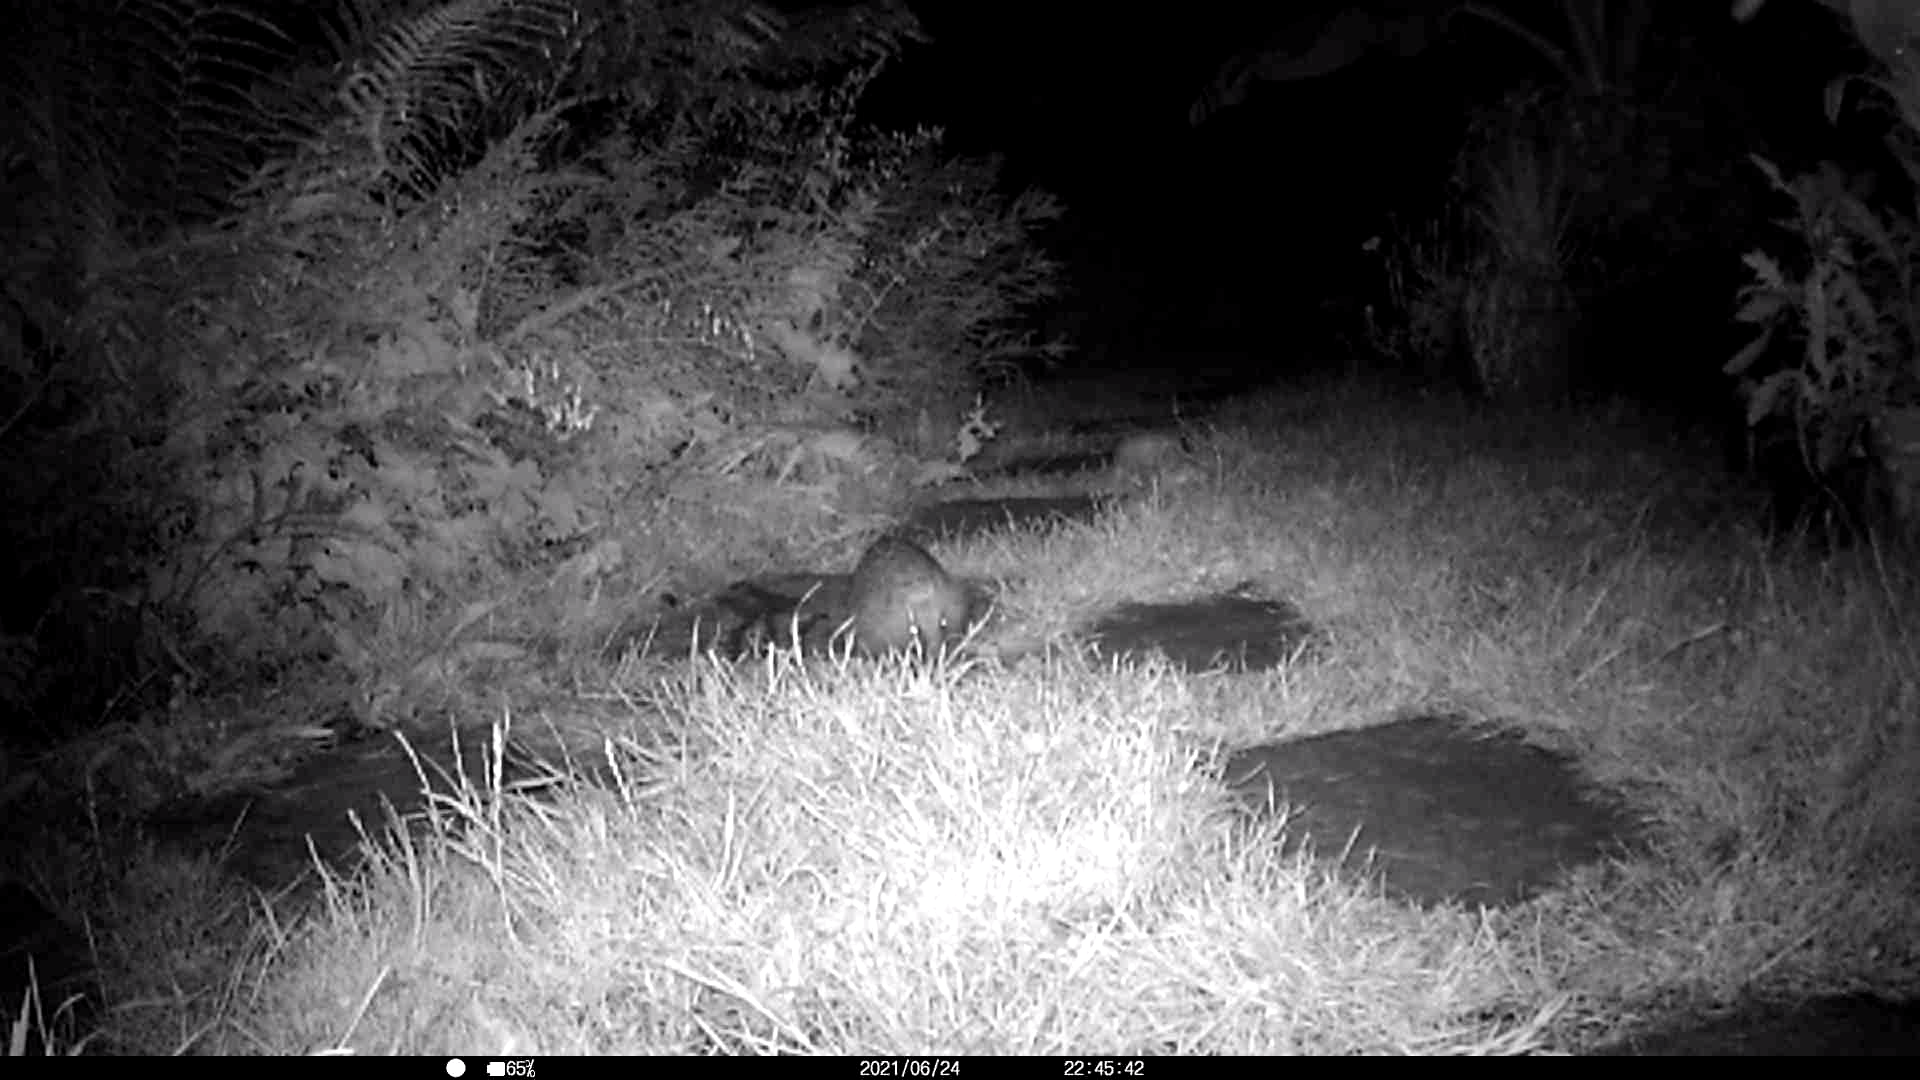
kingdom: Animalia
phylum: Chordata
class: Mammalia
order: Erinaceomorpha
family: Erinaceidae
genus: Erinaceus
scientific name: Erinaceus europaeus
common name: West european hedgehog
